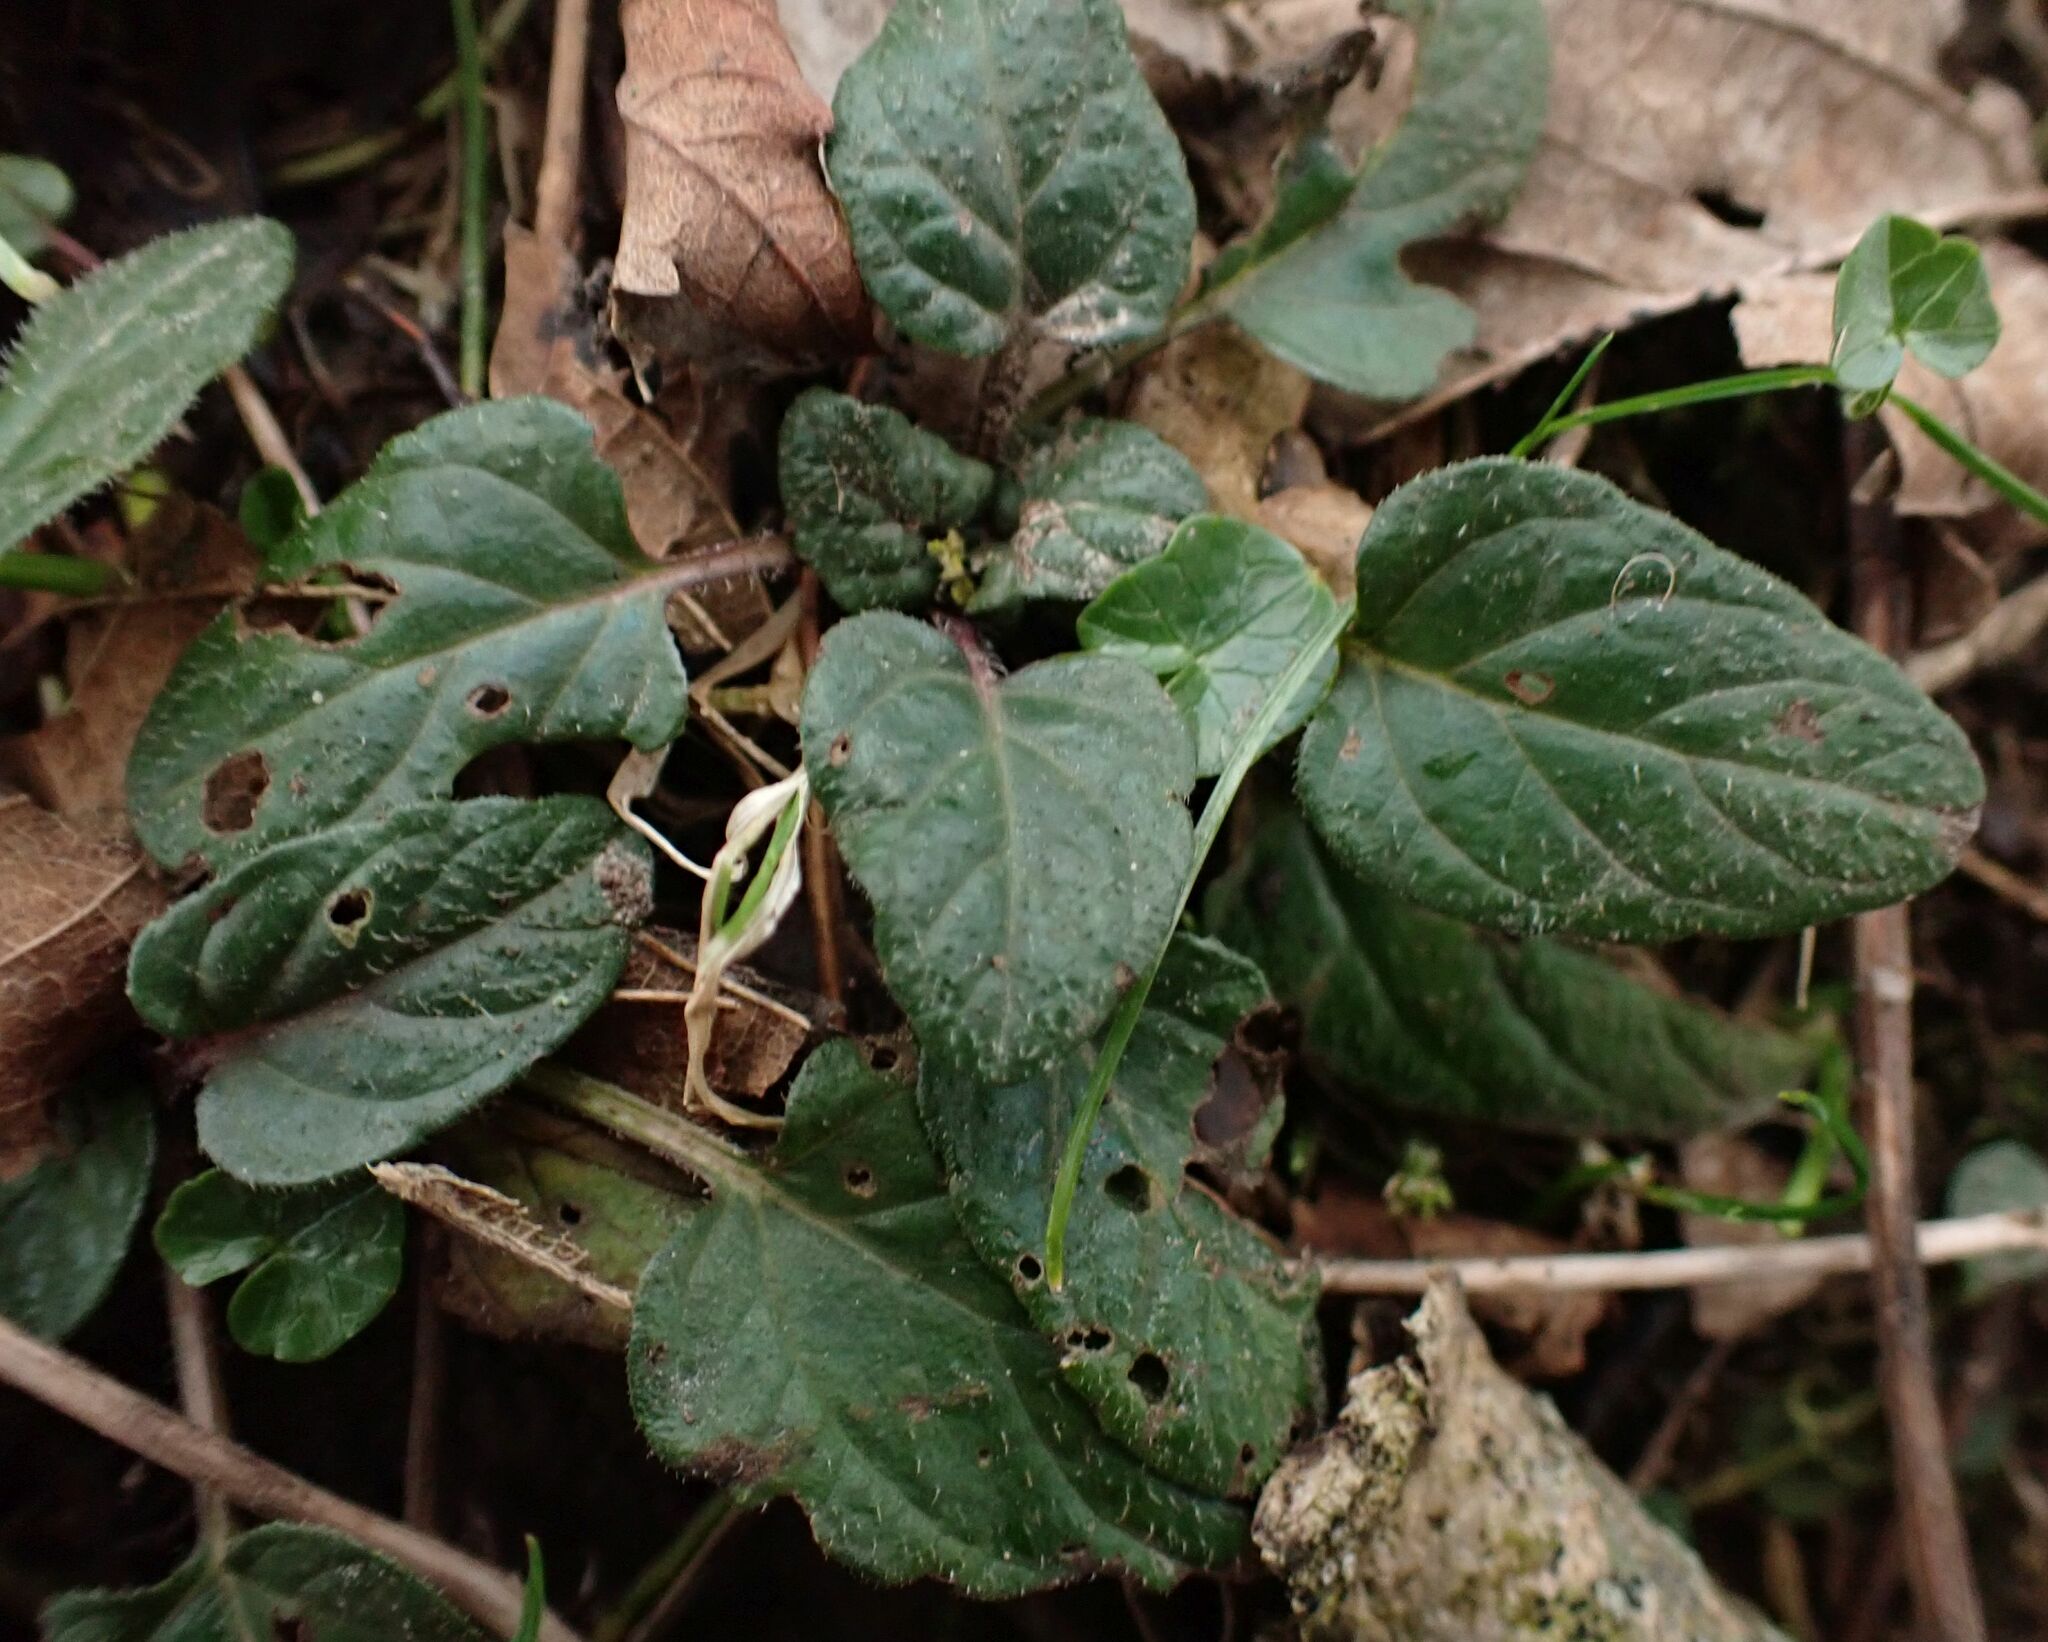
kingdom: Plantae
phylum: Tracheophyta
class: Magnoliopsida
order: Lamiales
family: Lamiaceae
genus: Prunella
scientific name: Prunella vulgaris
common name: Heal-all
